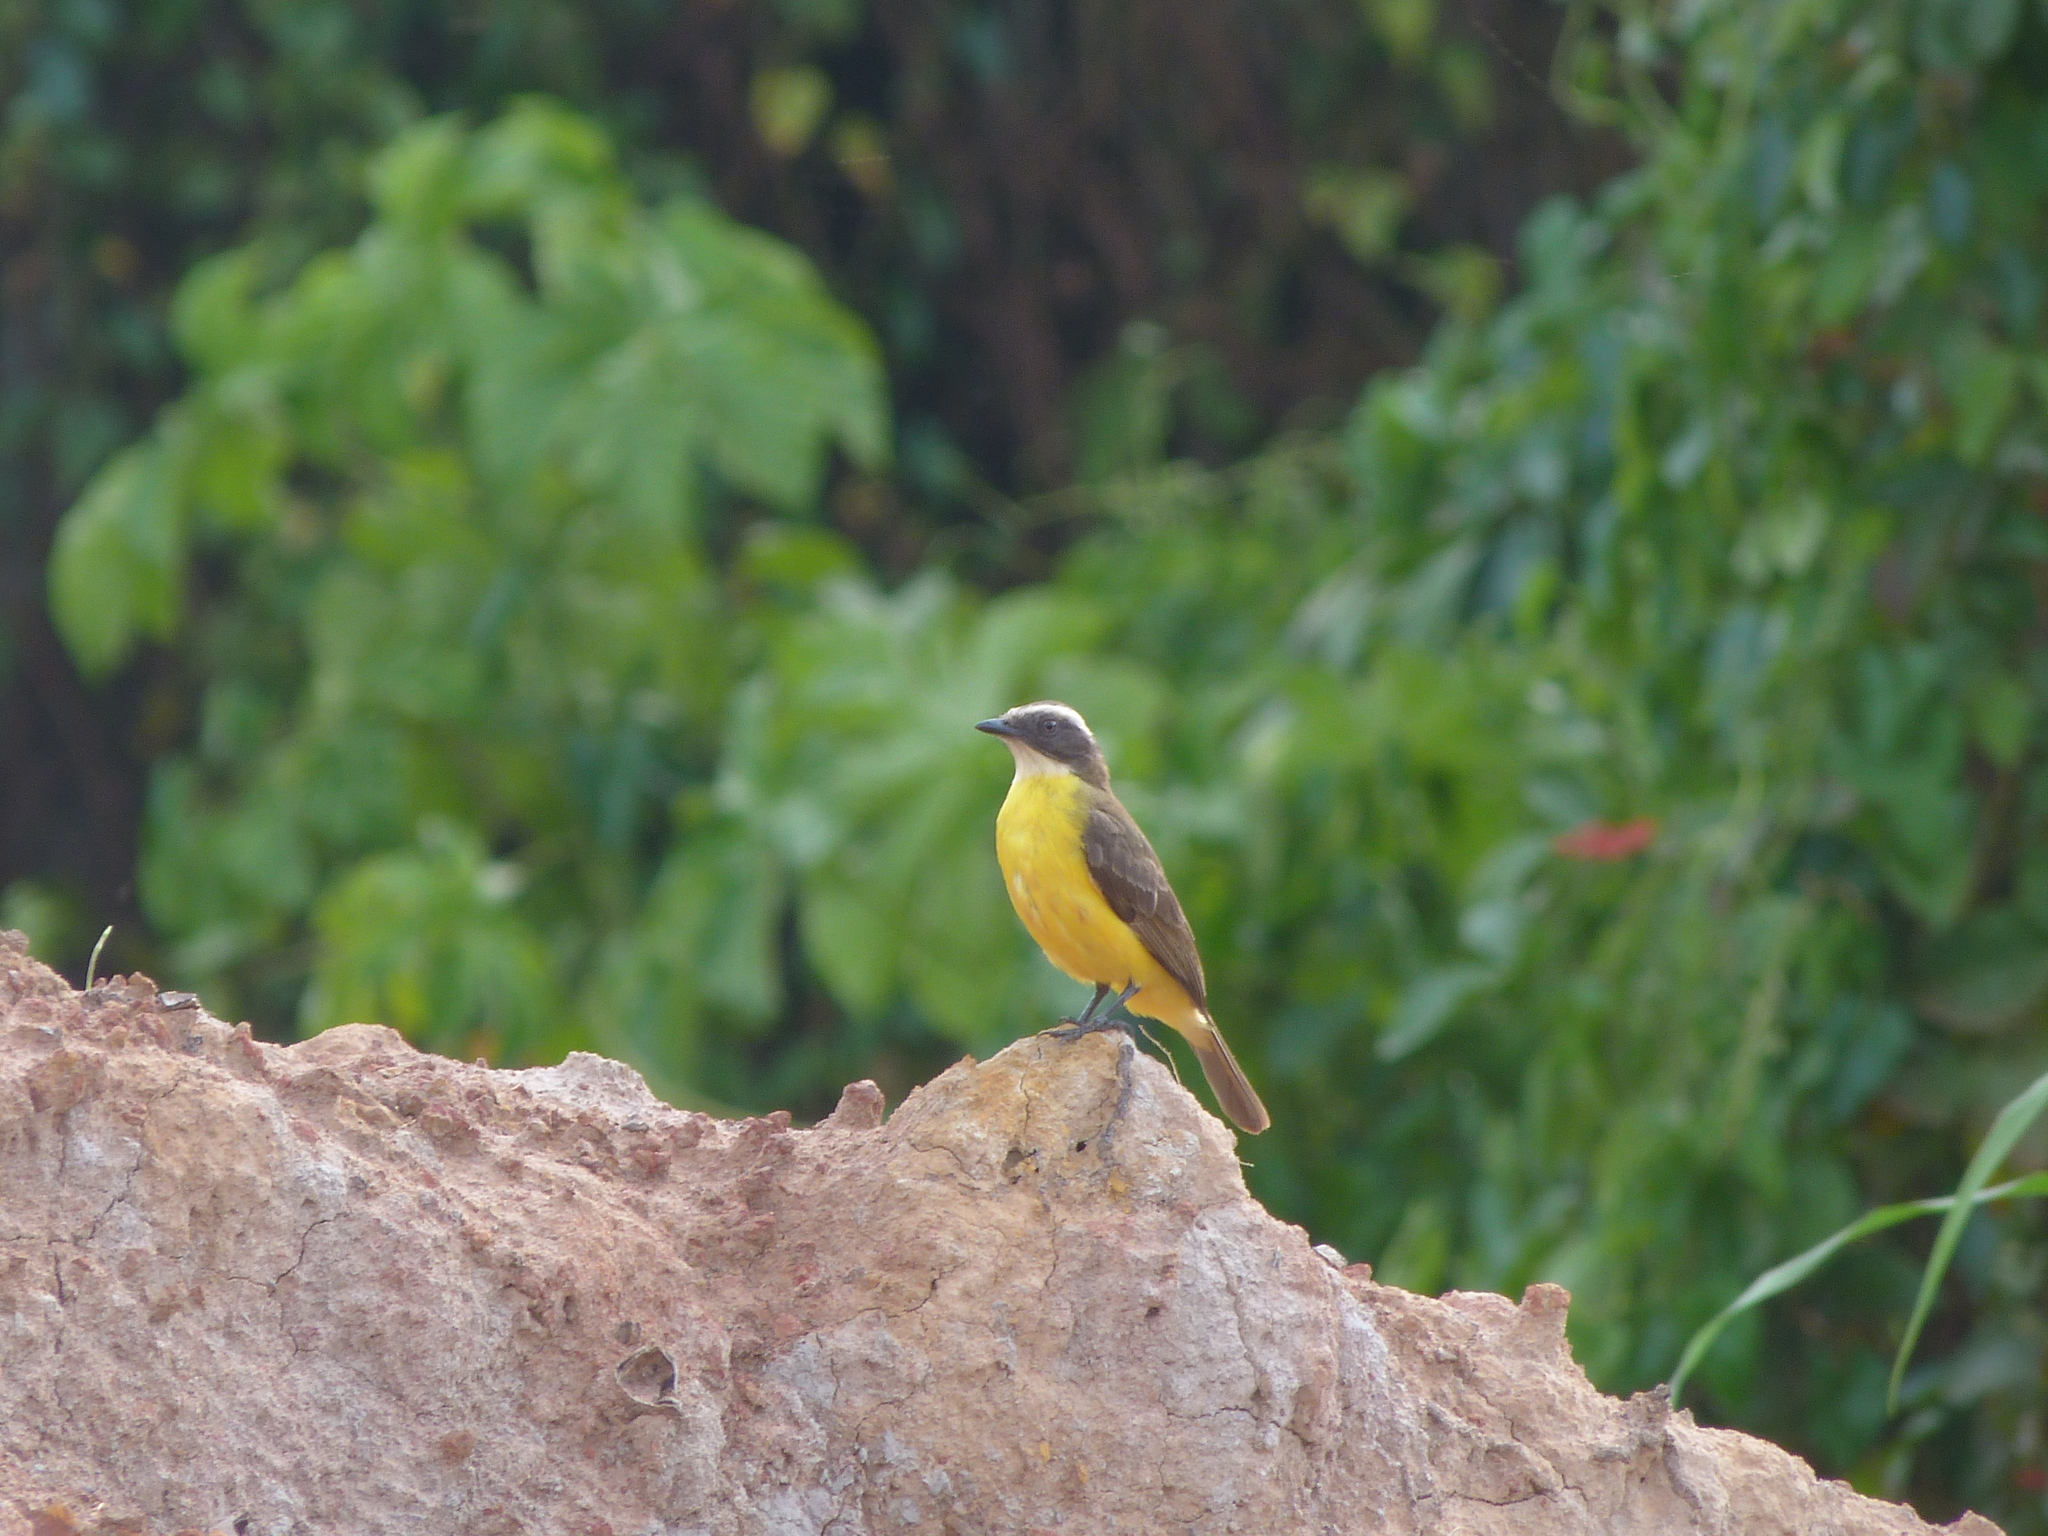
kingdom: Animalia
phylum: Chordata
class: Aves
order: Passeriformes
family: Tyrannidae
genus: Myiozetetes
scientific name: Myiozetetes cayanensis
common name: Rusty-margined flycatcher
